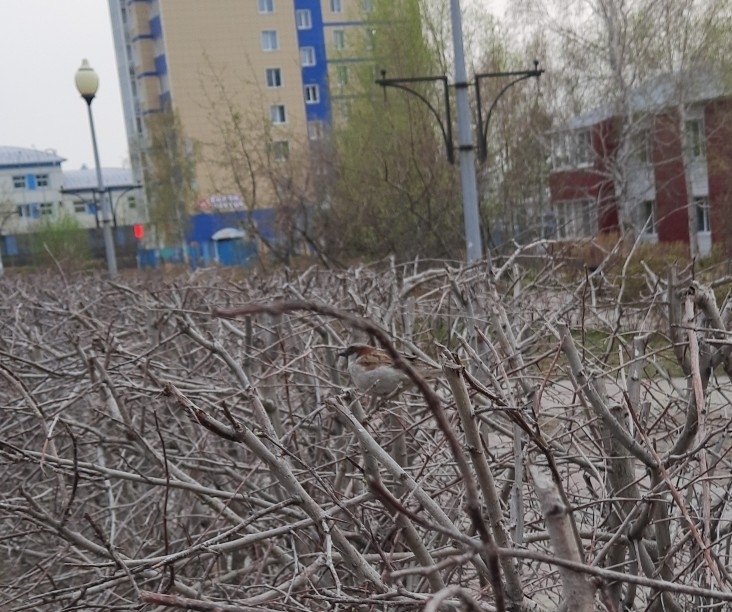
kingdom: Animalia
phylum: Chordata
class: Aves
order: Passeriformes
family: Passeridae
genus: Passer
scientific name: Passer domesticus
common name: House sparrow
